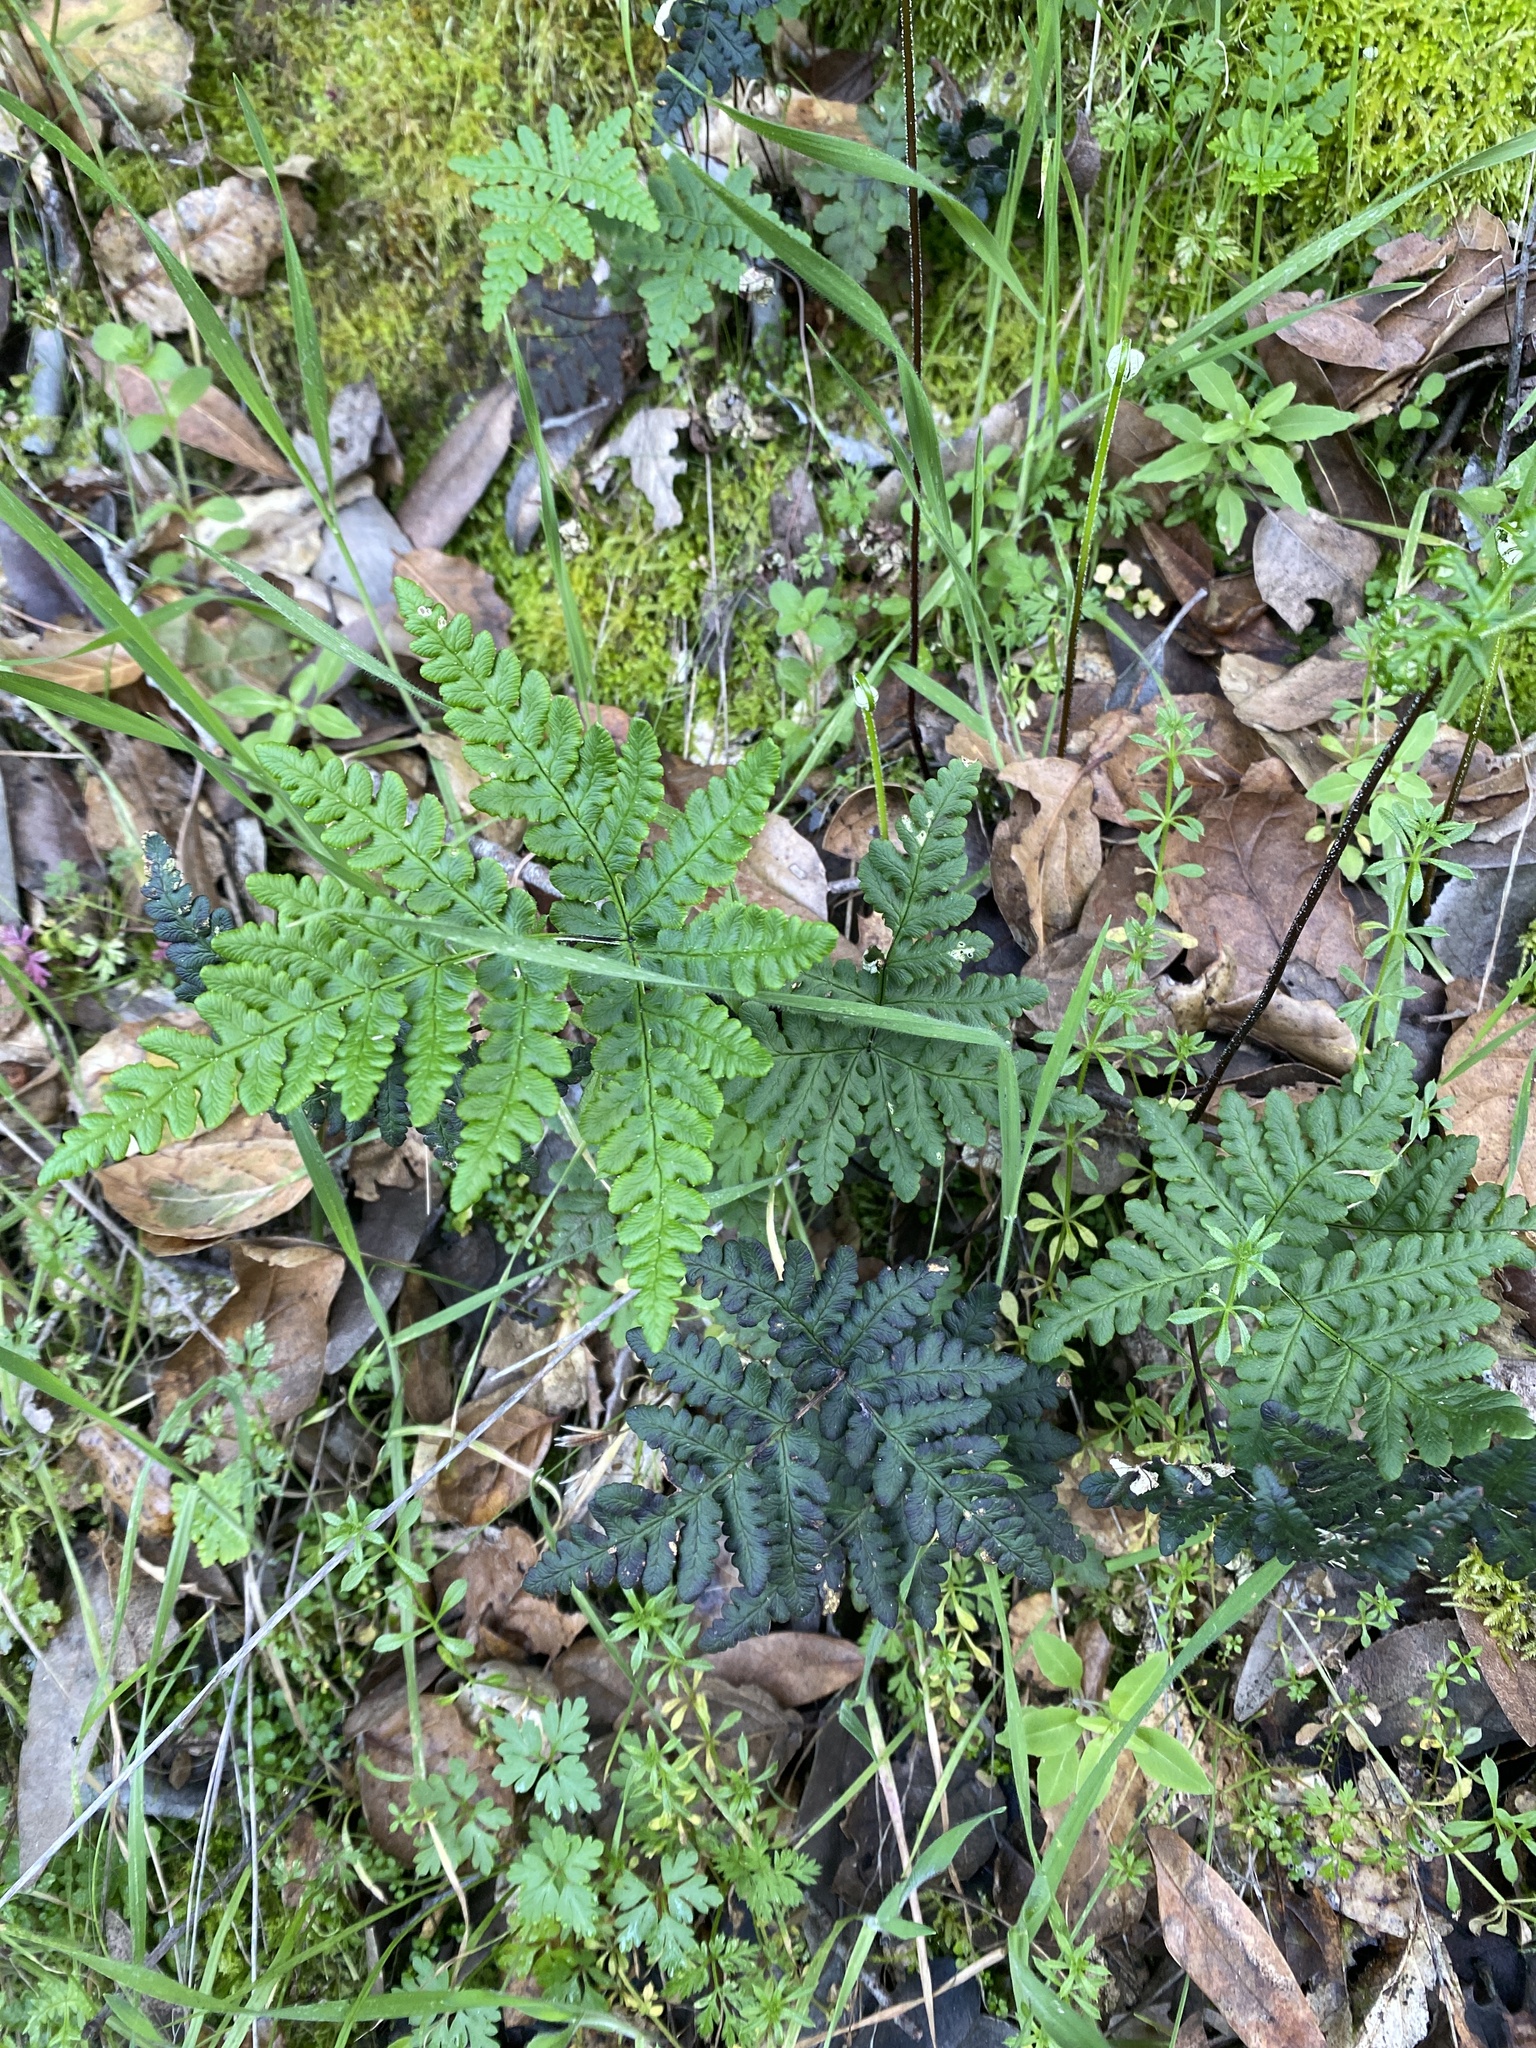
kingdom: Plantae
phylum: Tracheophyta
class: Polypodiopsida
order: Polypodiales
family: Pteridaceae
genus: Pentagramma
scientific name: Pentagramma triangularis
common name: Gold fern
